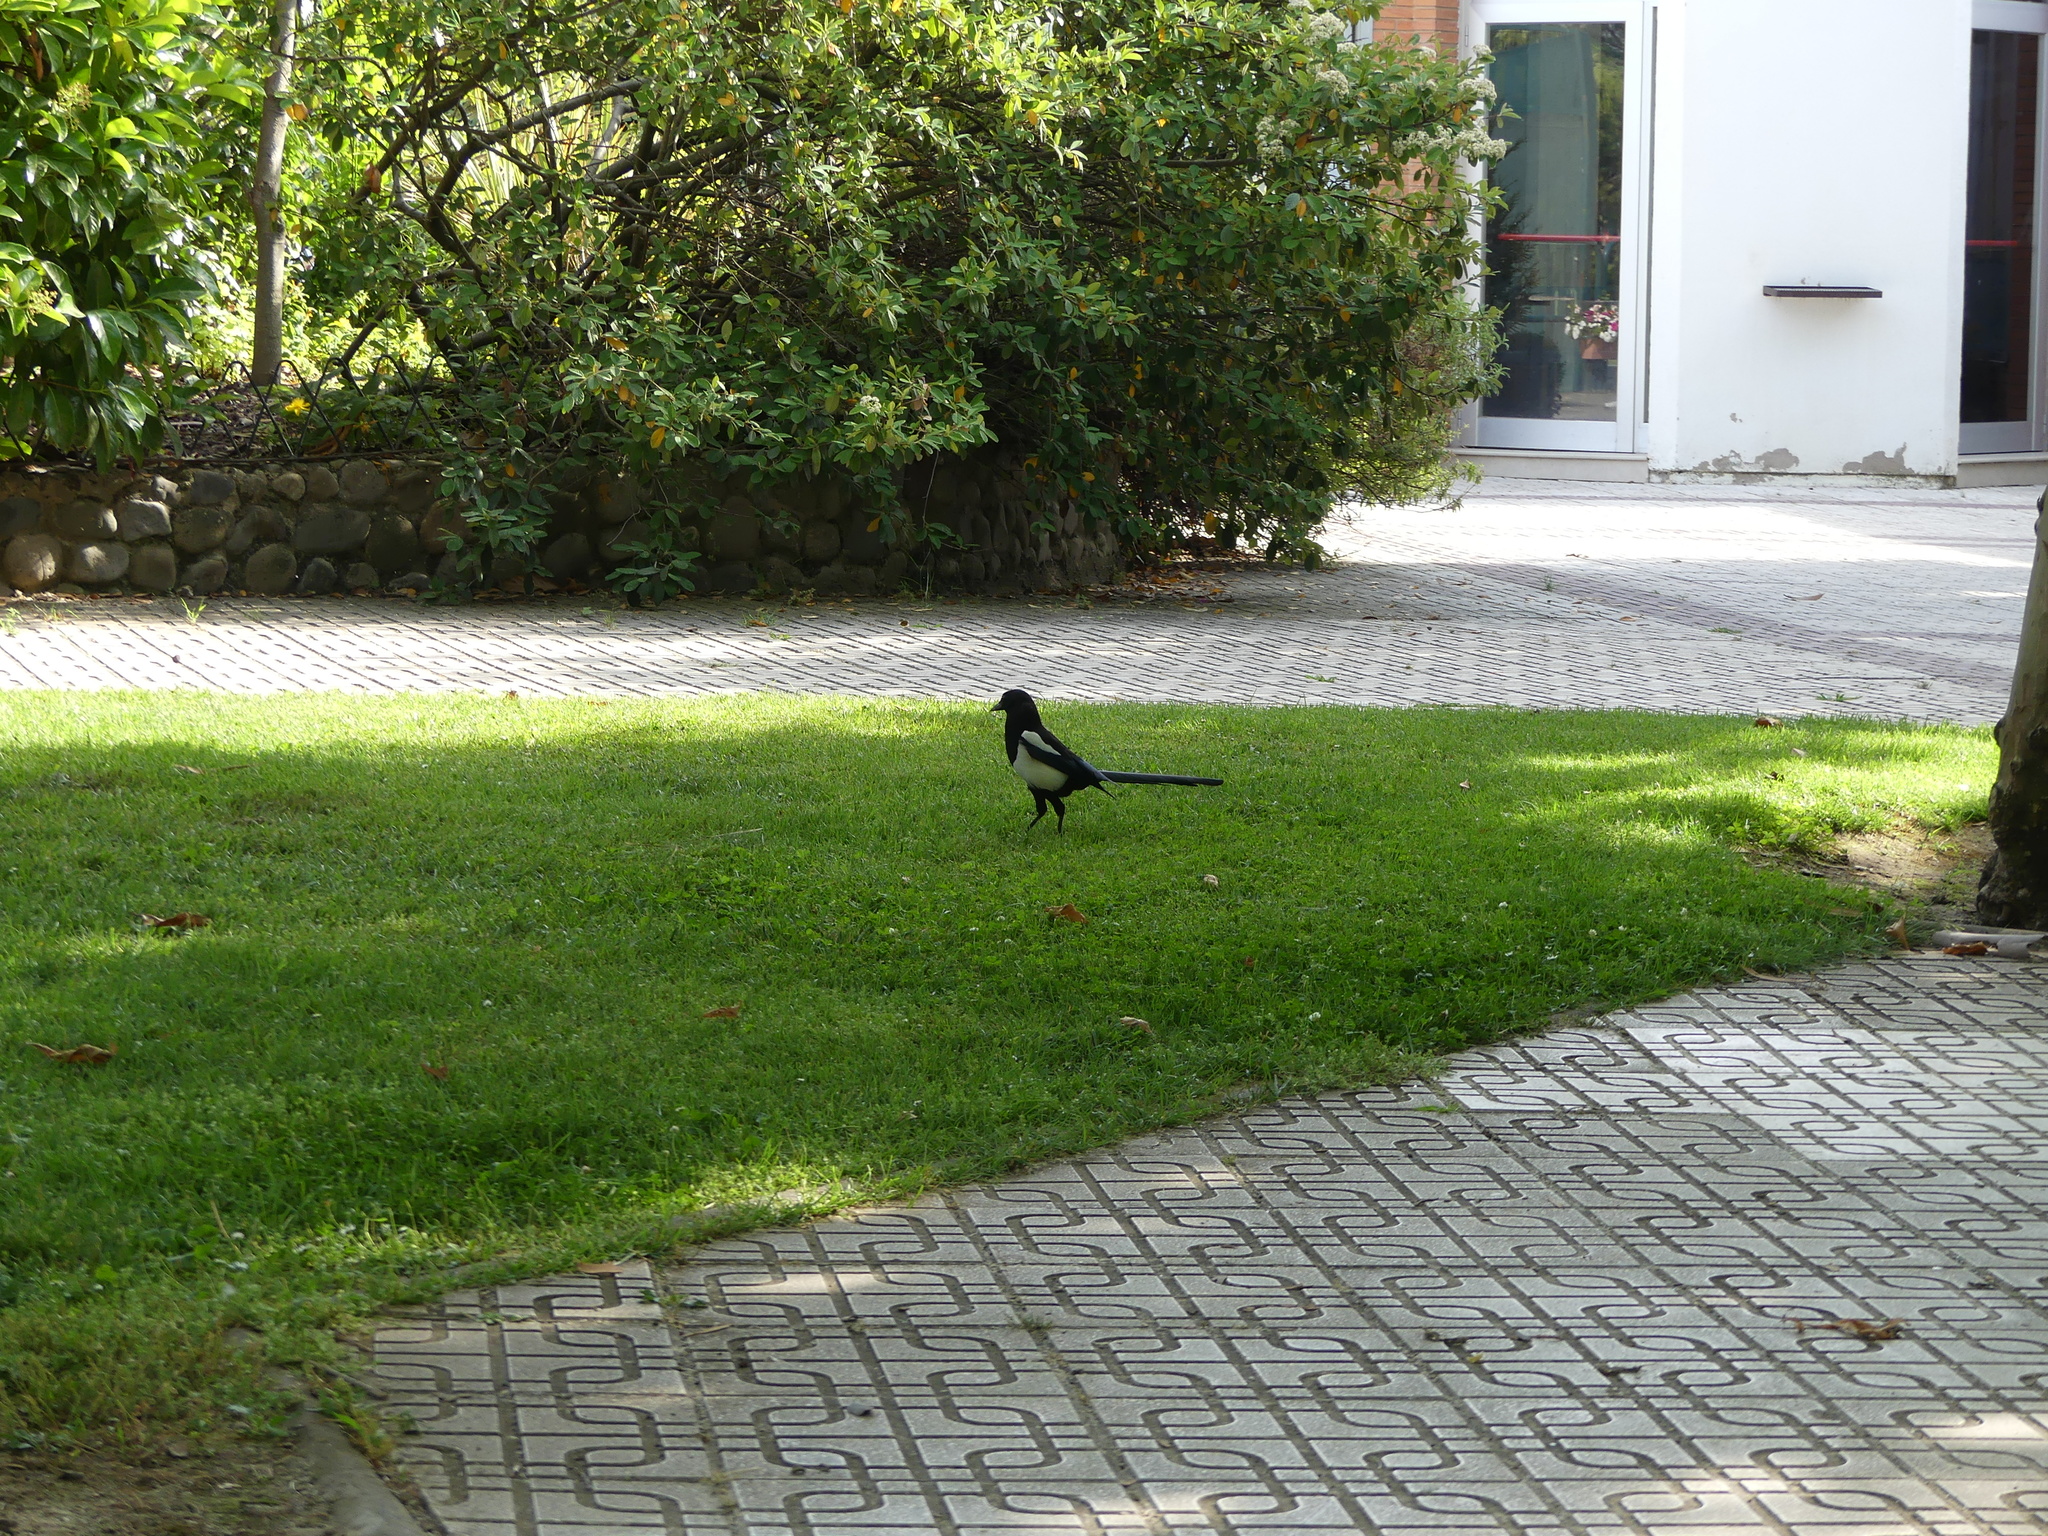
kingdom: Animalia
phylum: Chordata
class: Aves
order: Passeriformes
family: Corvidae
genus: Pica
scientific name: Pica pica
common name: Eurasian magpie
